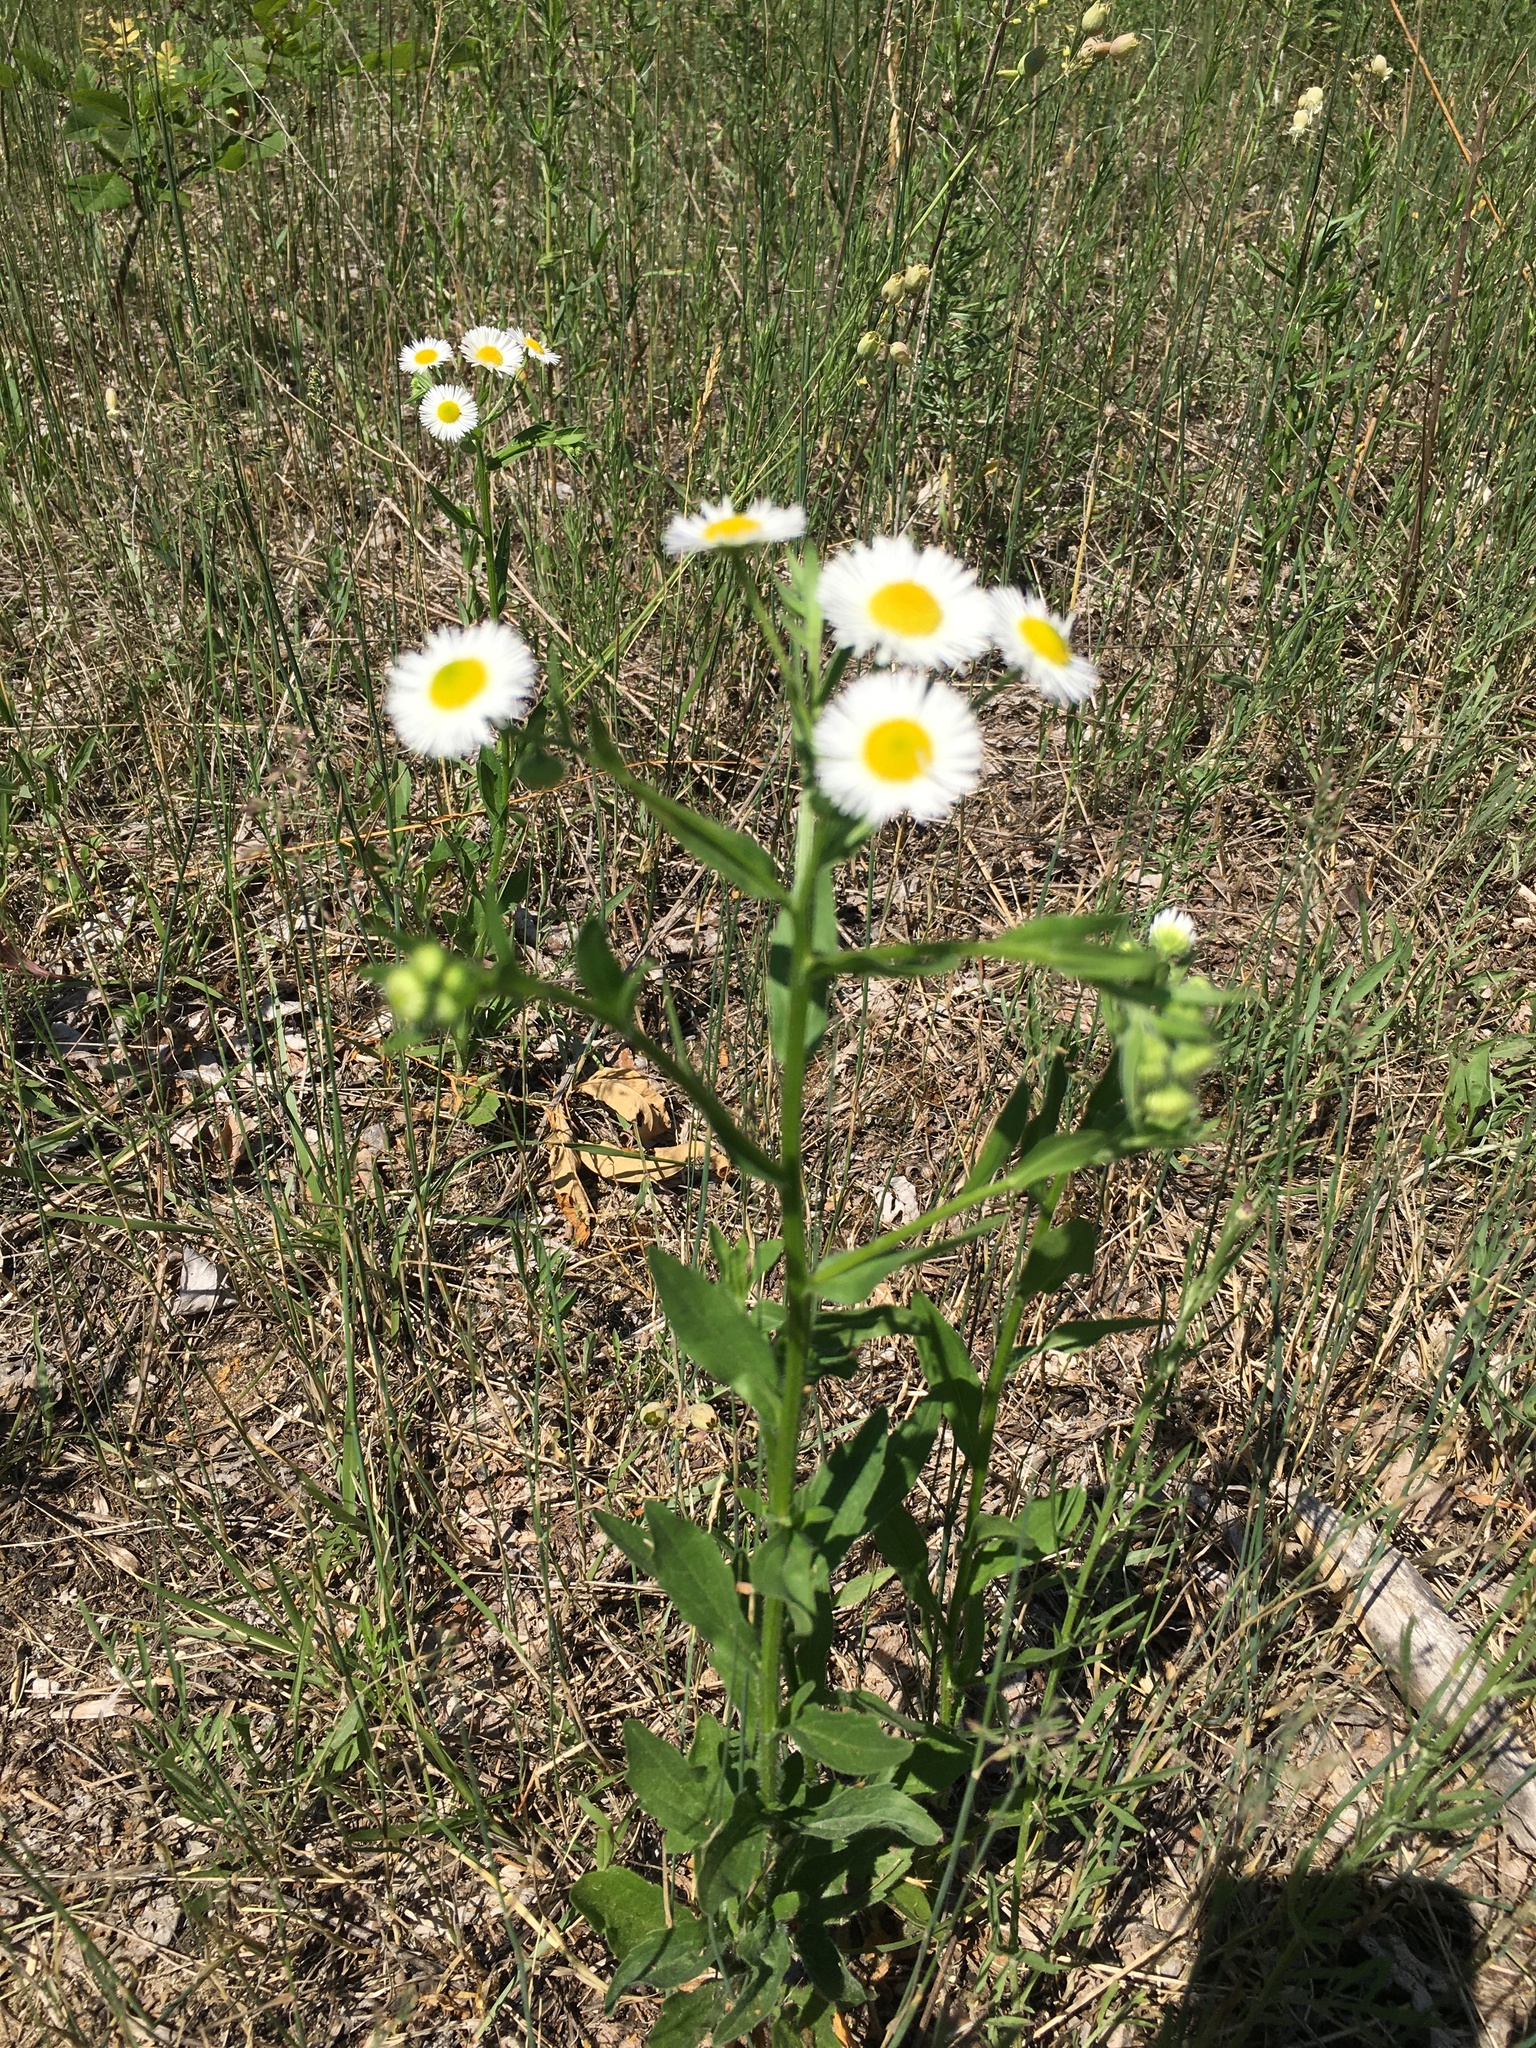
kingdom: Plantae
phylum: Tracheophyta
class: Magnoliopsida
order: Asterales
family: Asteraceae
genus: Erigeron
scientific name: Erigeron annuus
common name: Tall fleabane
